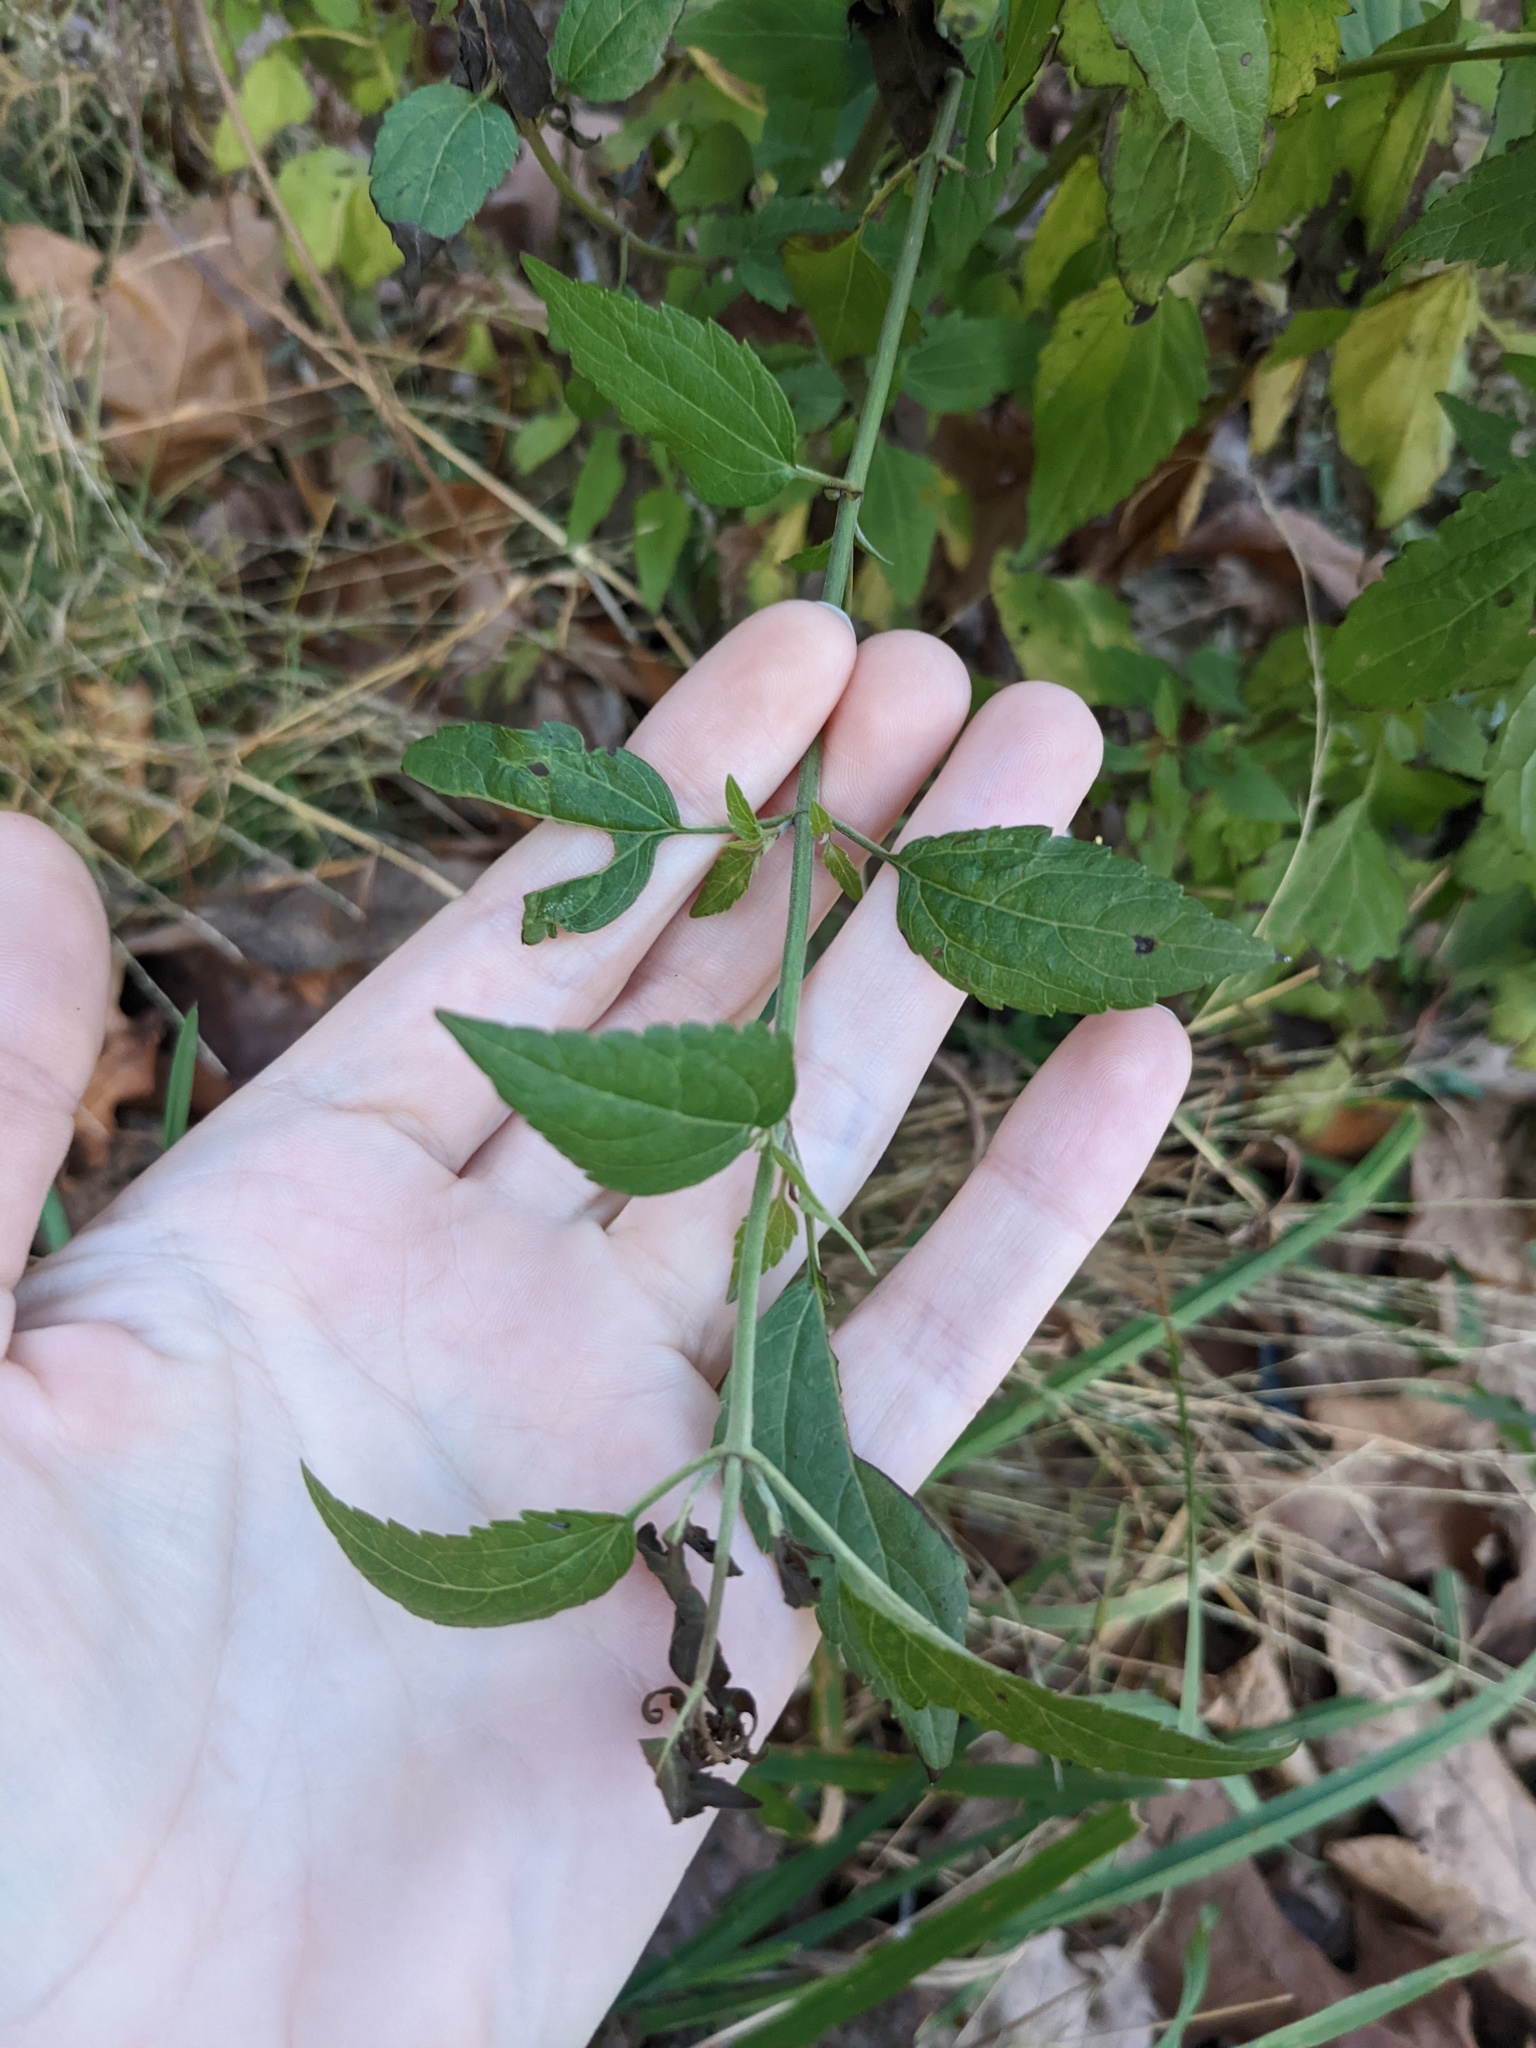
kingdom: Plantae
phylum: Tracheophyta
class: Magnoliopsida
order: Asterales
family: Asteraceae
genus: Ageratina
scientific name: Ageratina altissima
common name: White snakeroot
